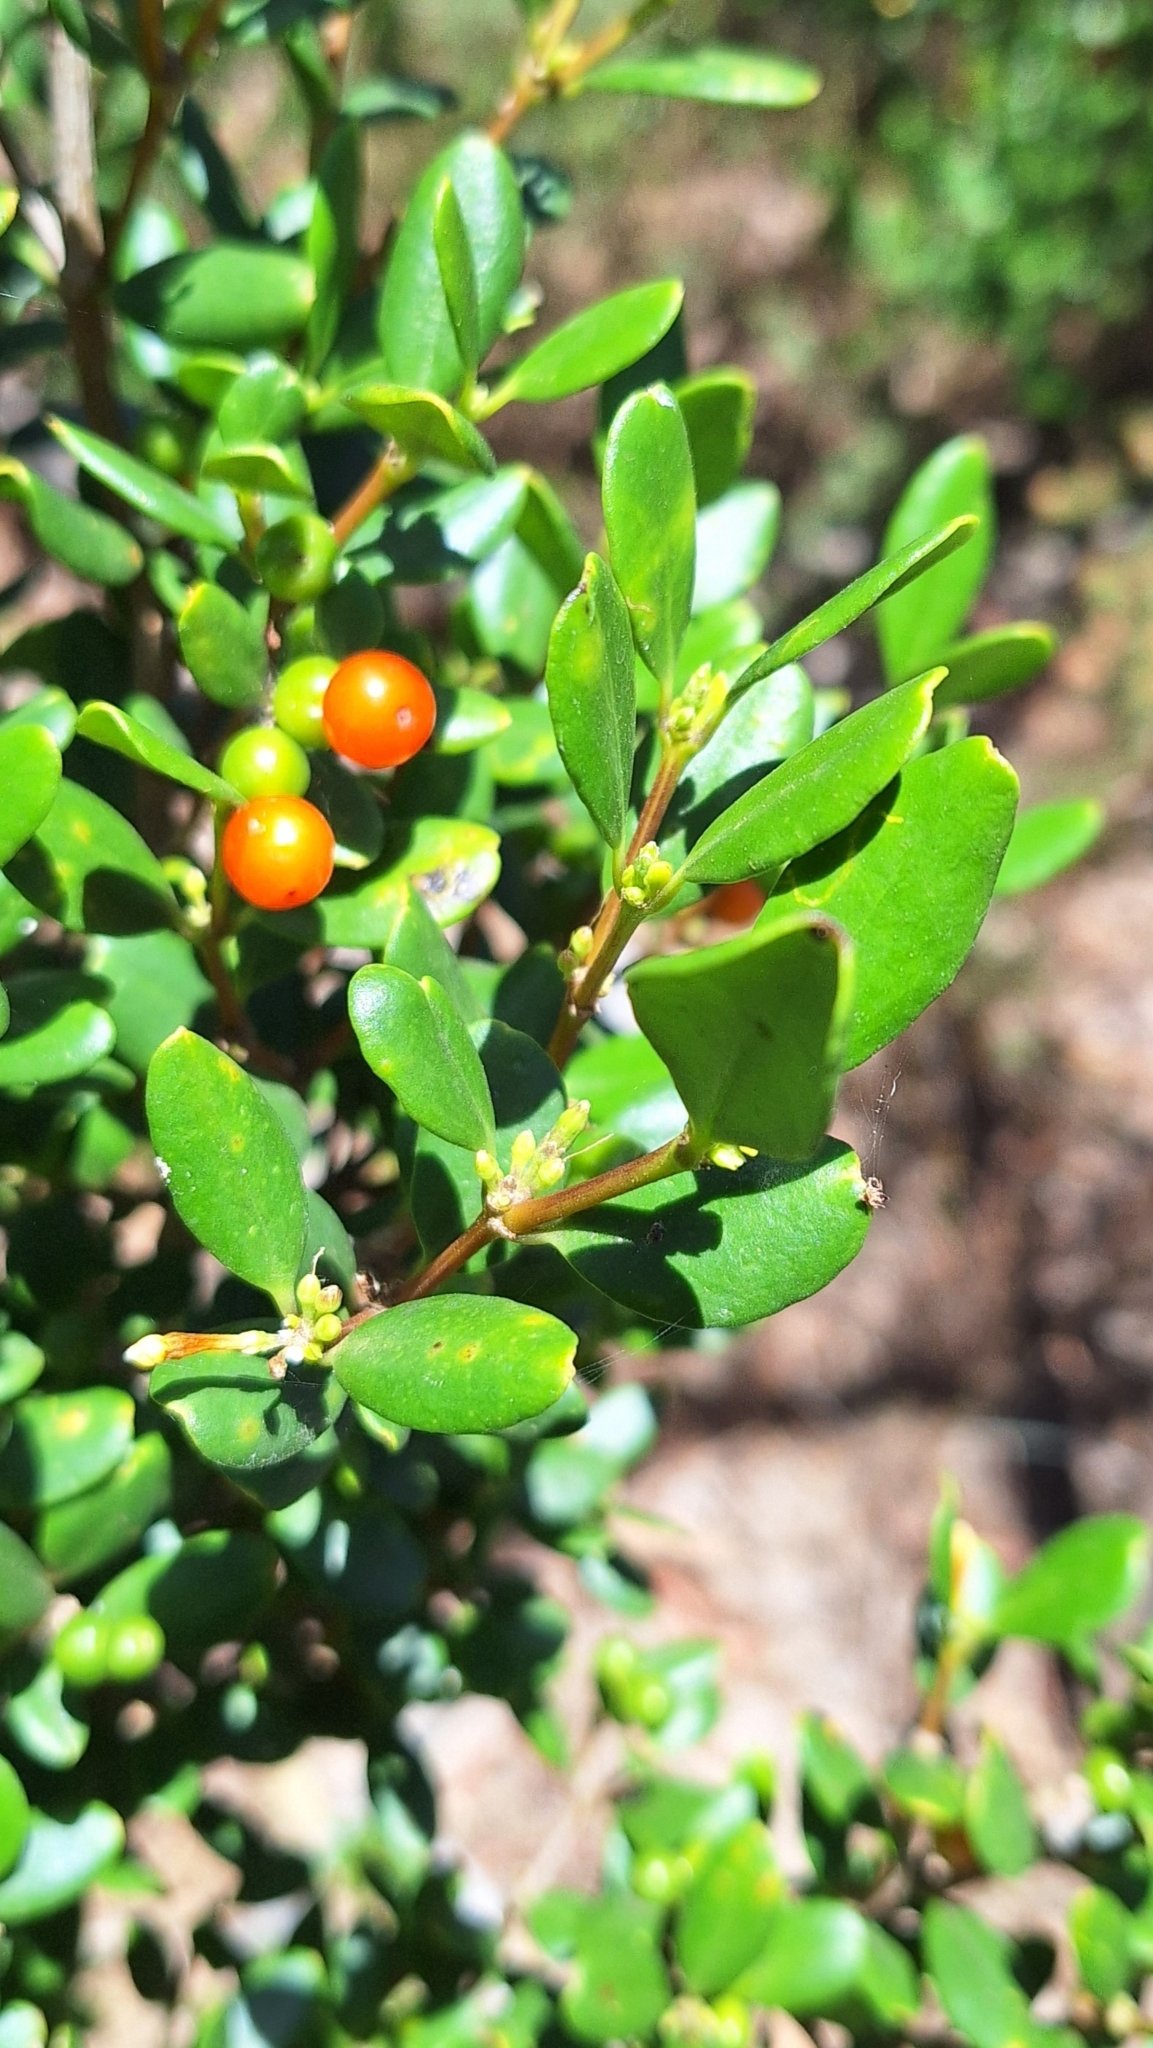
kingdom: Plantae
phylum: Tracheophyta
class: Magnoliopsida
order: Gentianales
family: Apocynaceae
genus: Alyxia
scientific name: Alyxia buxifolia
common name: Dysentery-bush
